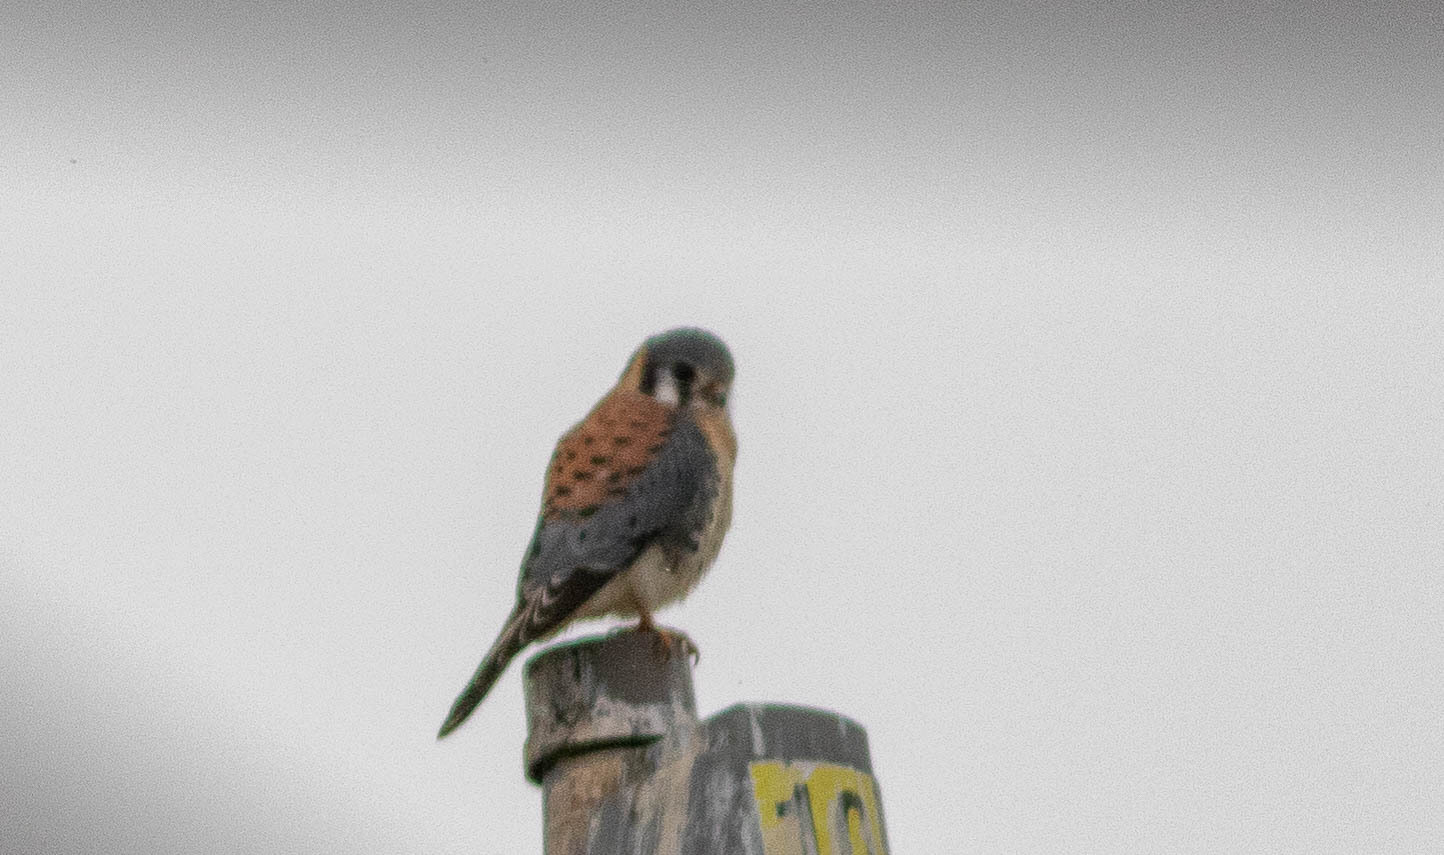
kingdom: Animalia
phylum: Chordata
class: Aves
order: Falconiformes
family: Falconidae
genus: Falco
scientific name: Falco sparverius
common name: American kestrel
